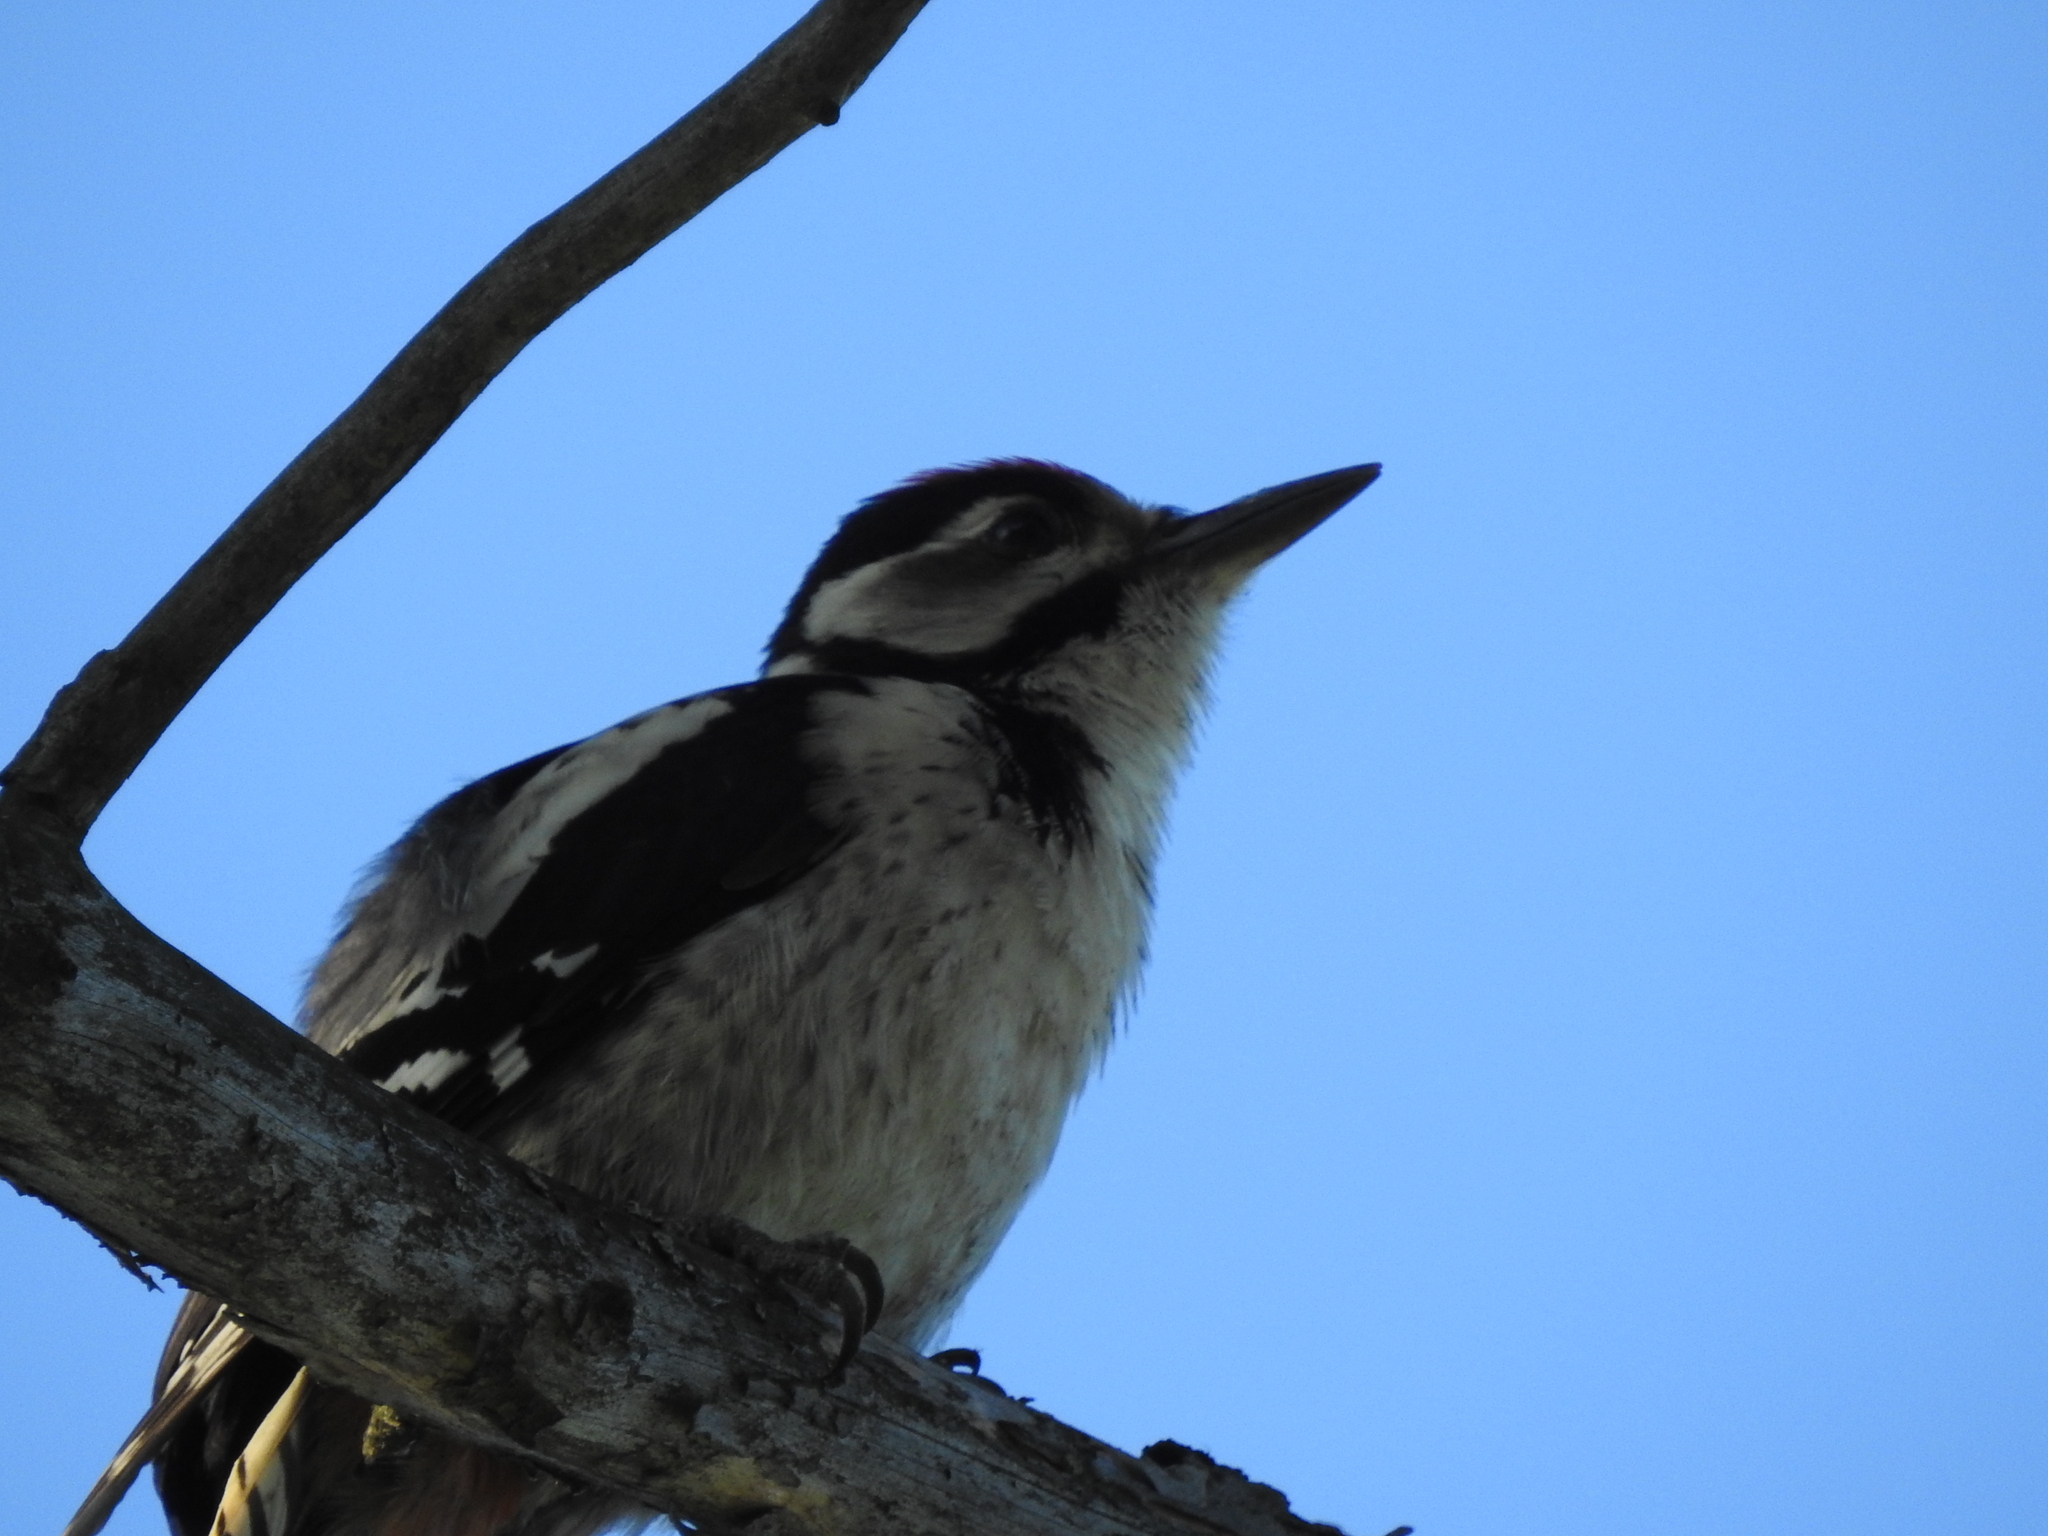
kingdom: Animalia
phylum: Chordata
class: Aves
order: Piciformes
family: Picidae
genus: Dendrocopos
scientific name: Dendrocopos major
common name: Great spotted woodpecker
